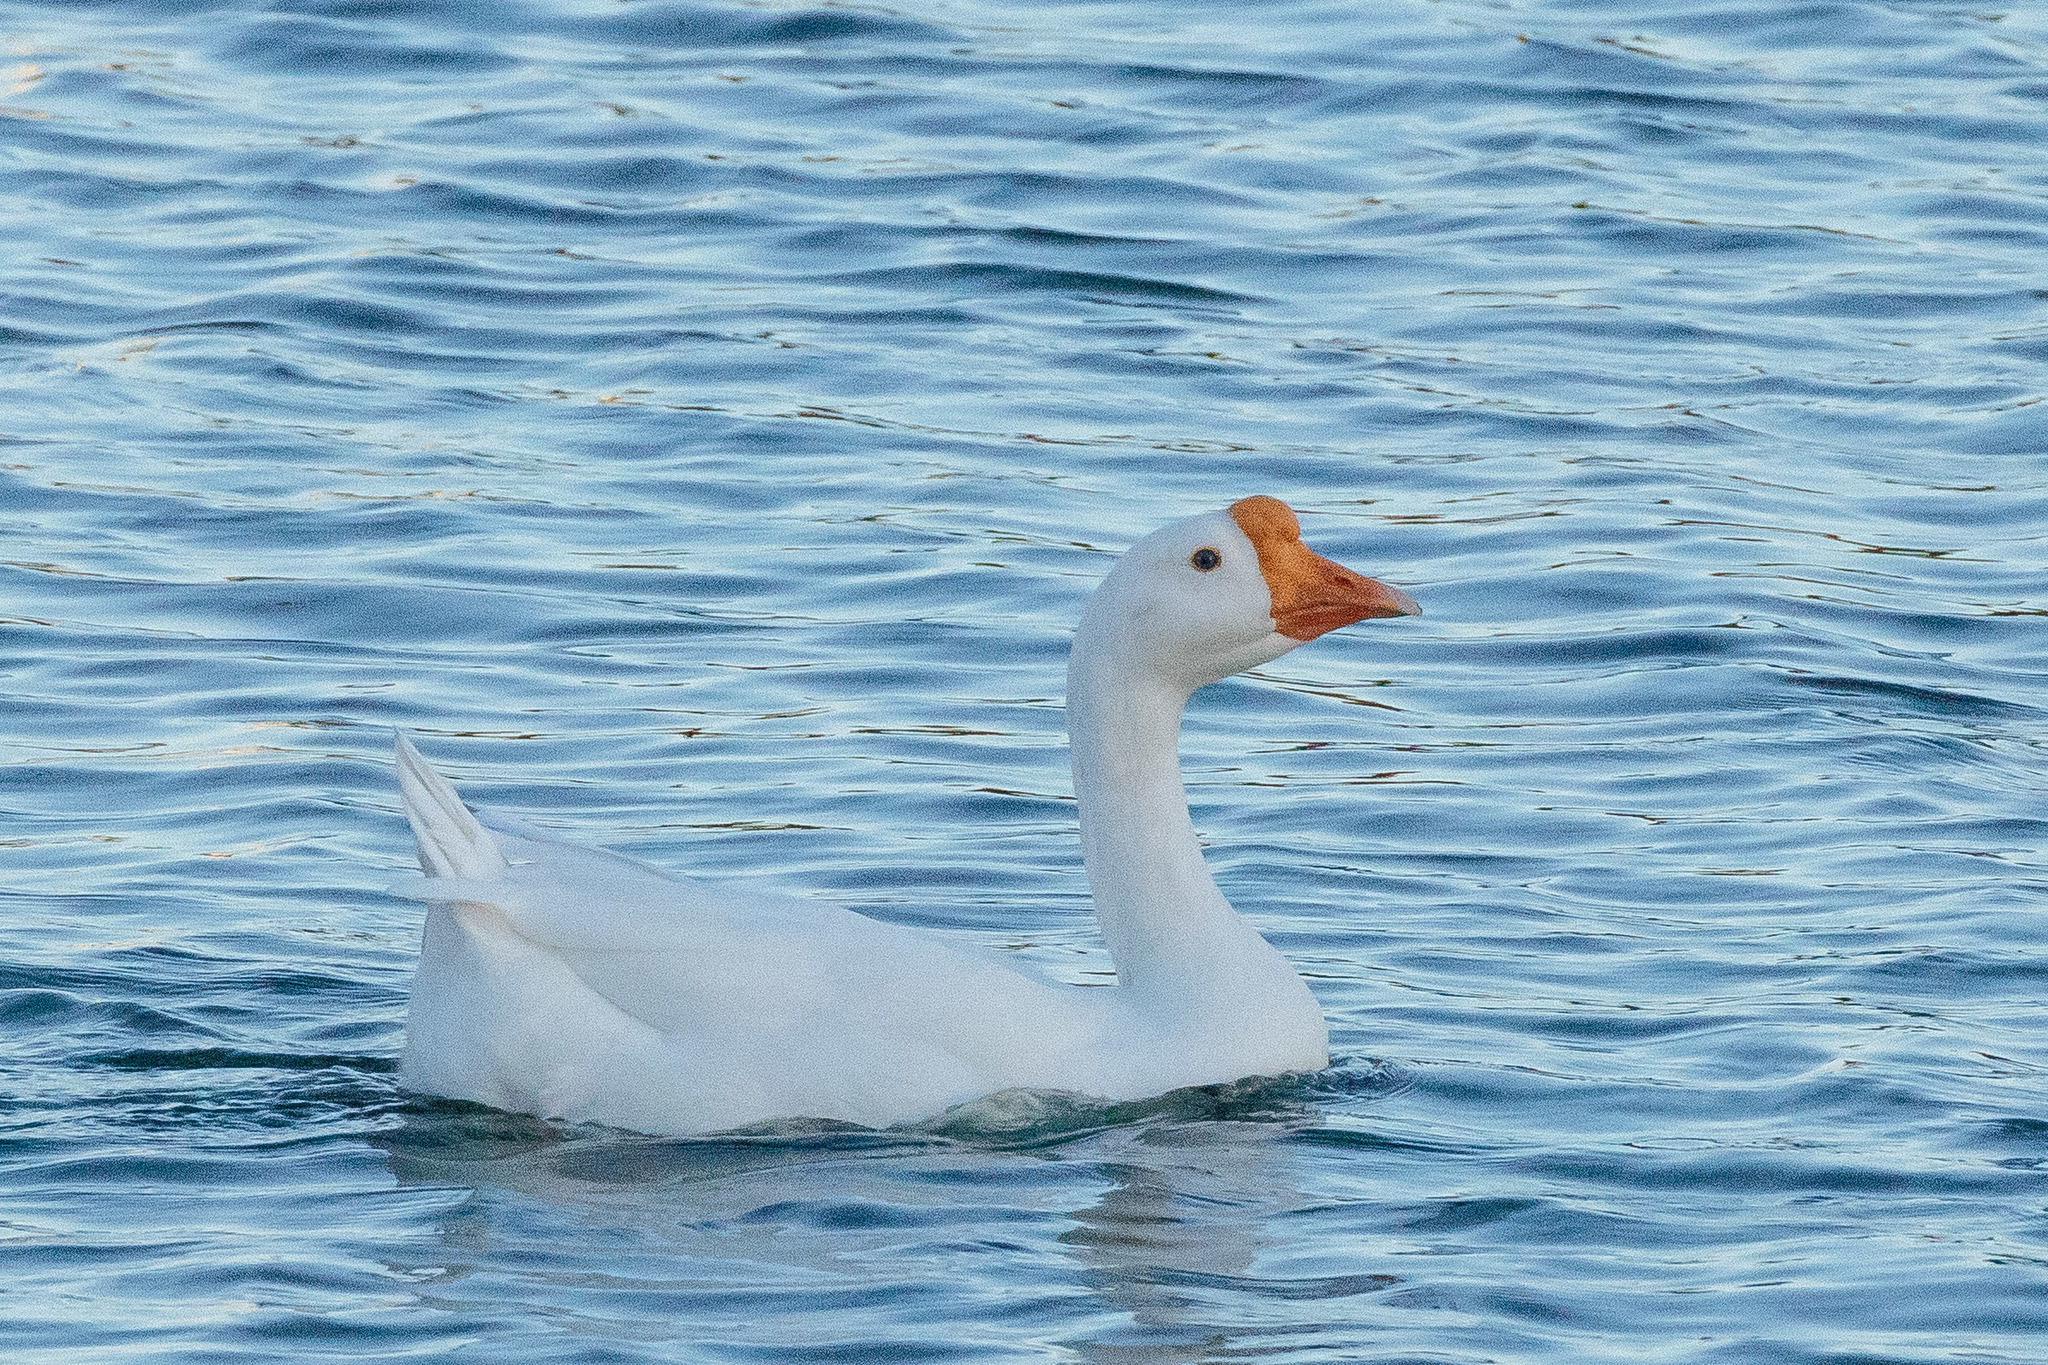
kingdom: Animalia
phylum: Chordata
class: Aves
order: Anseriformes
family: Anatidae
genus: Anser
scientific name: Anser cygnoides
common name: Swan goose
